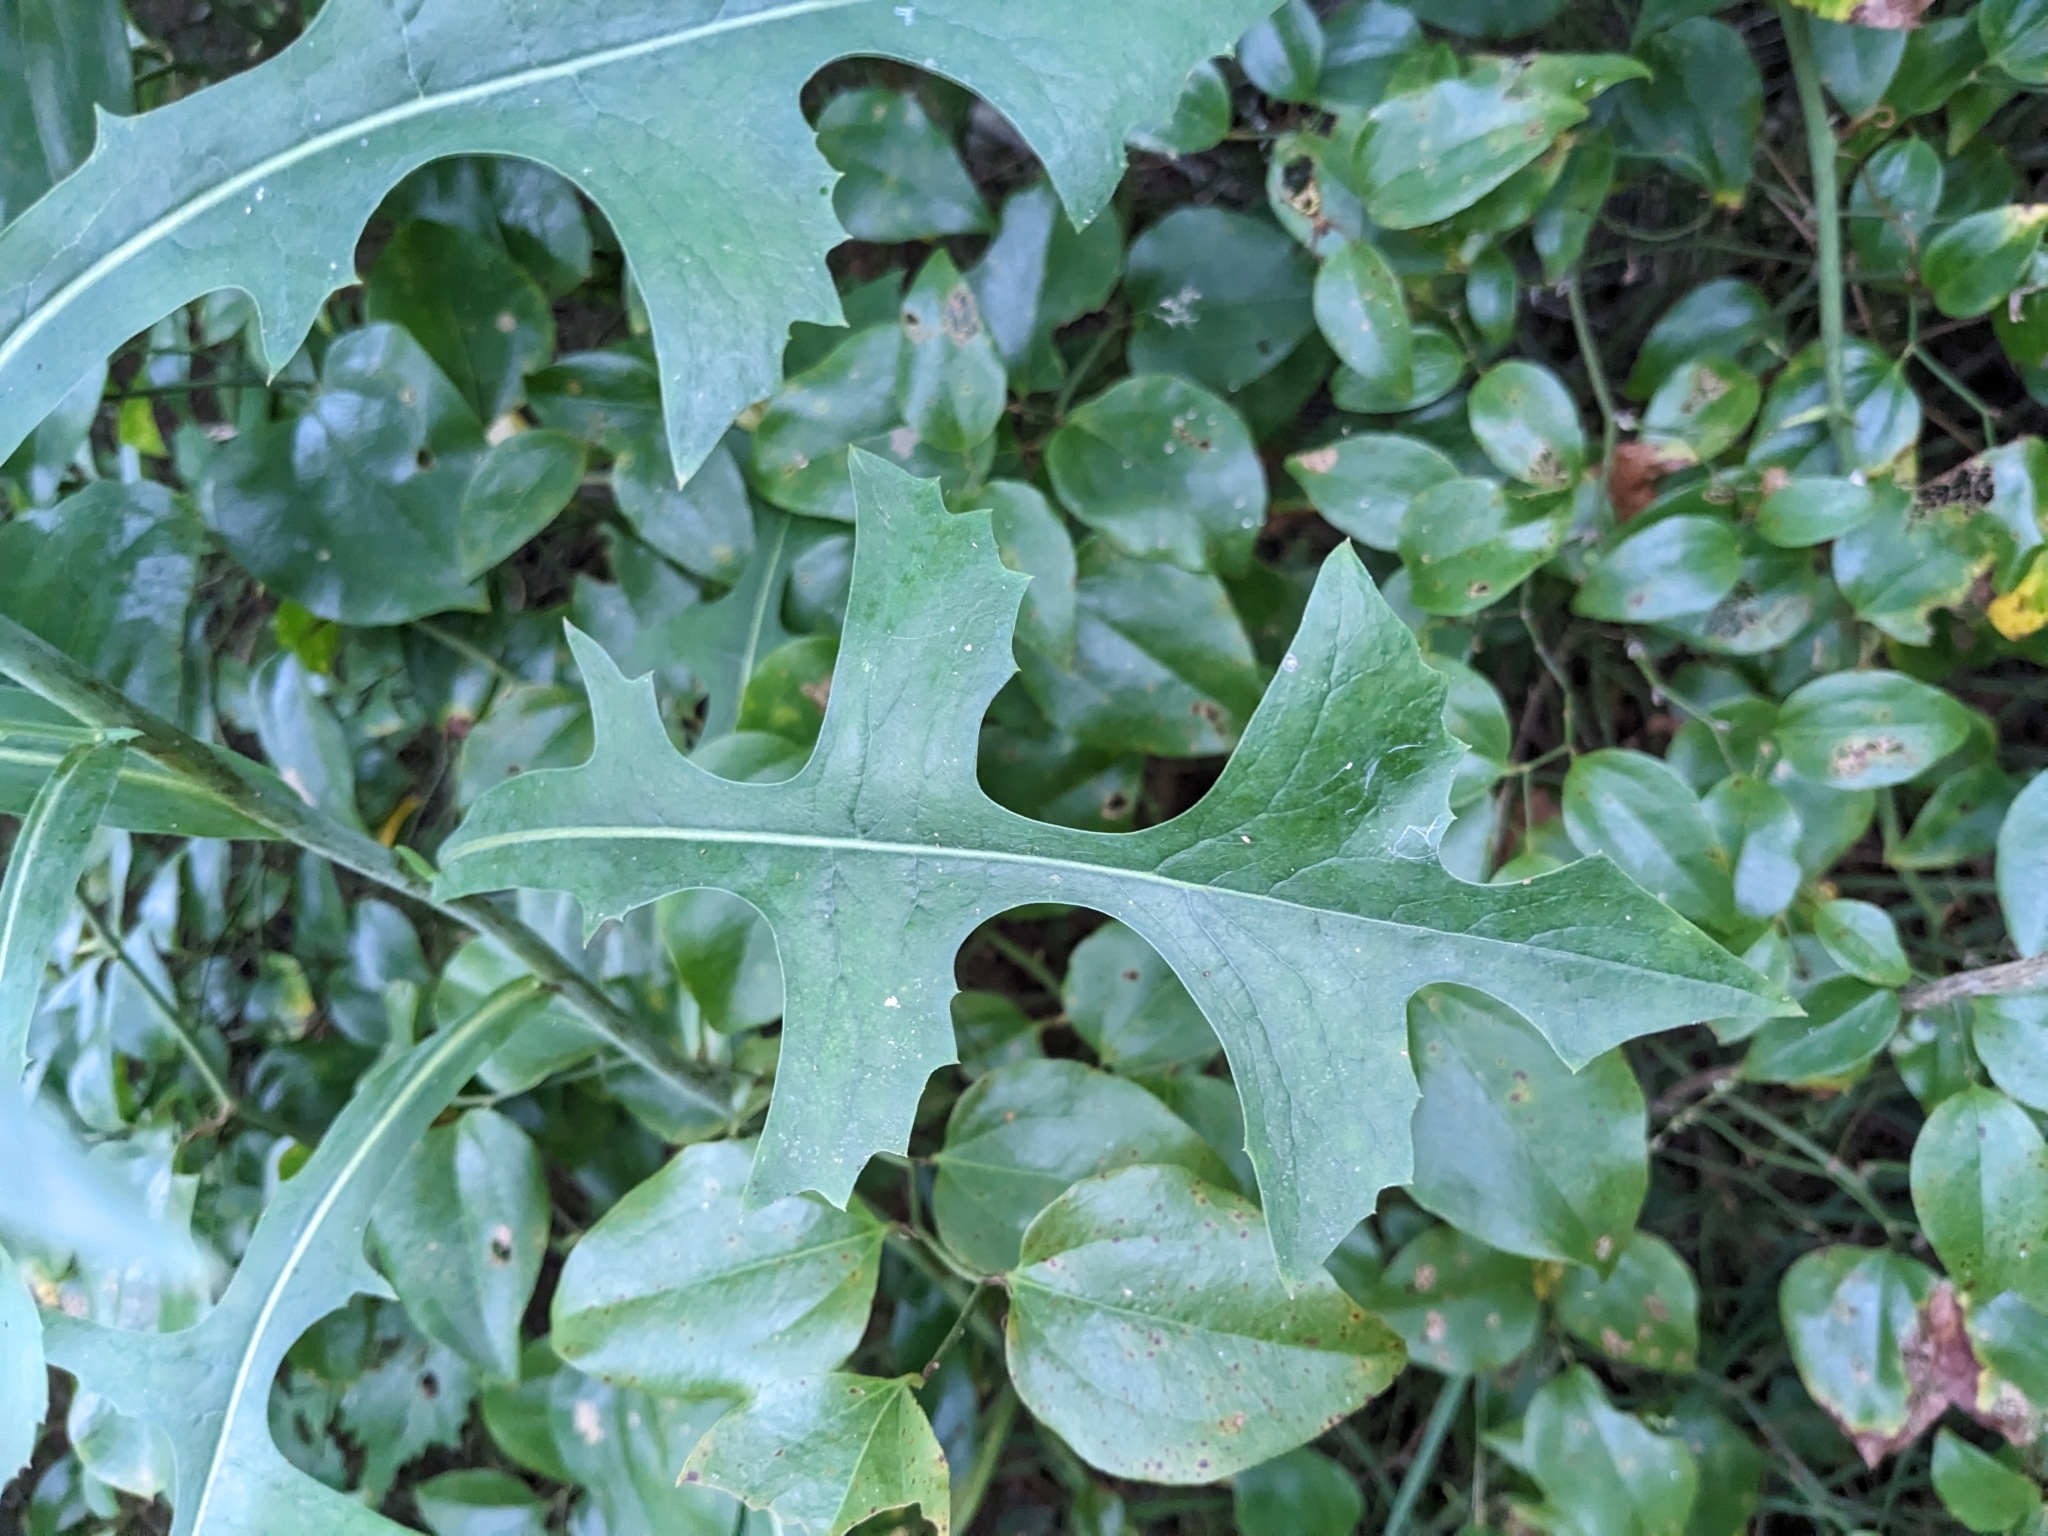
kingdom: Plantae
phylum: Tracheophyta
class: Magnoliopsida
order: Asterales
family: Asteraceae
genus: Lactuca
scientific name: Lactuca canadensis
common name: Canada lettuce
